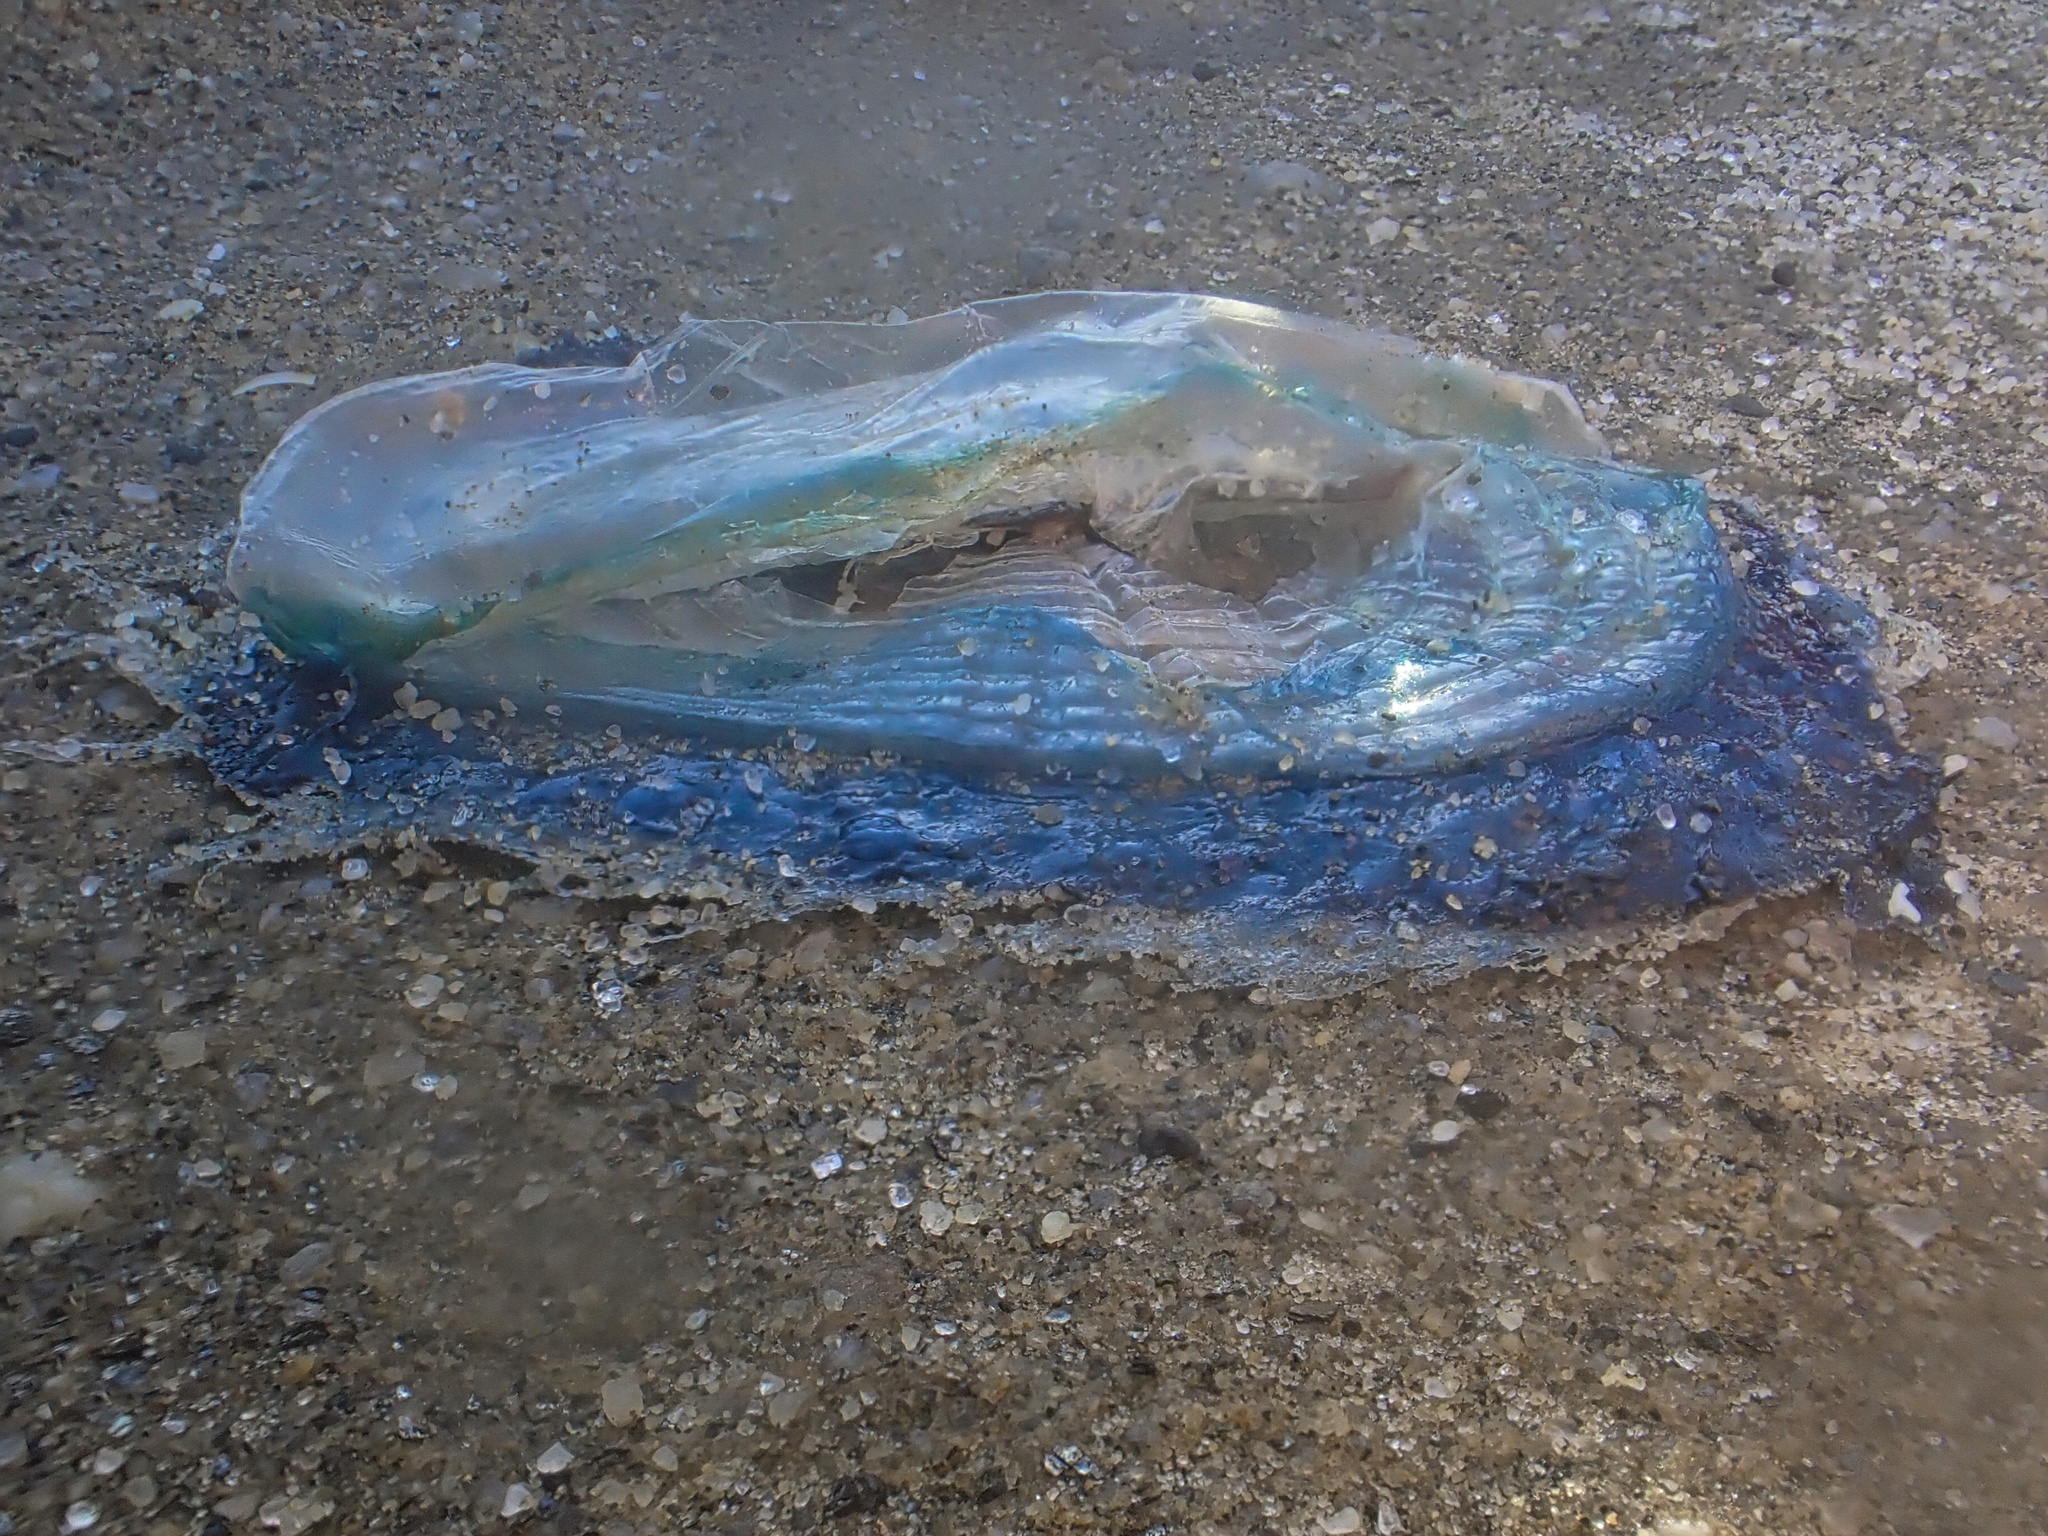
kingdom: Animalia
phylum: Cnidaria
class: Hydrozoa
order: Anthoathecata
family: Porpitidae
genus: Velella
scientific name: Velella velella
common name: By-the-wind-sailor
